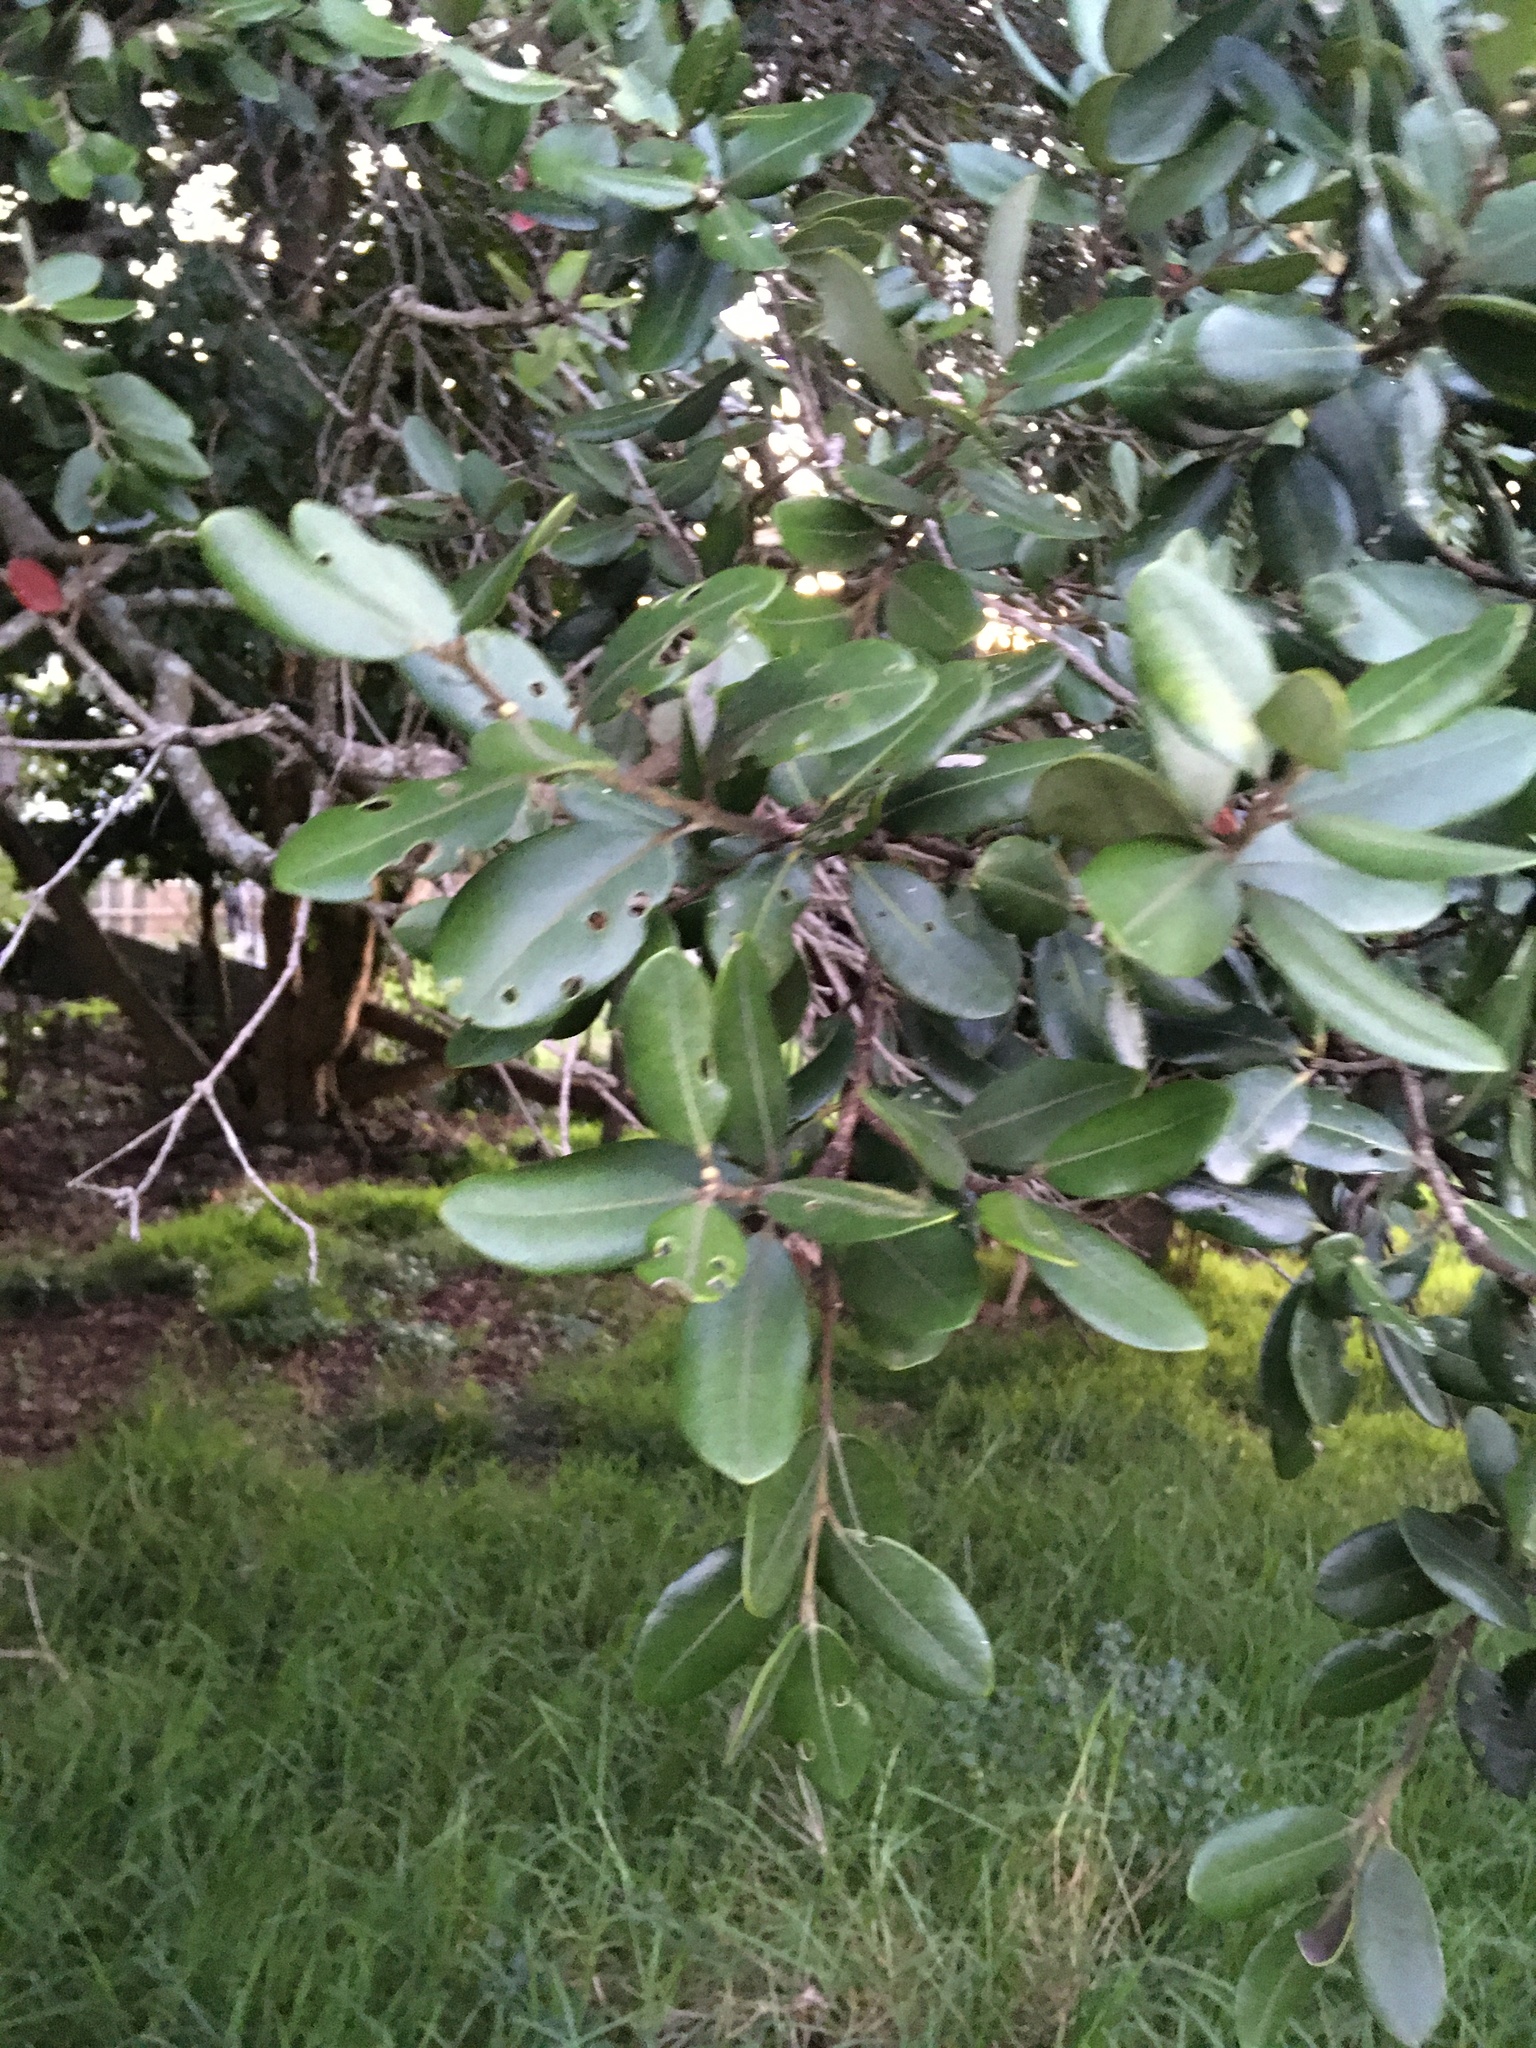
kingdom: Plantae
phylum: Tracheophyta
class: Magnoliopsida
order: Myrtales
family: Myrtaceae
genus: Metrosideros
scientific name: Metrosideros excelsa
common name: New zealand christmastree
